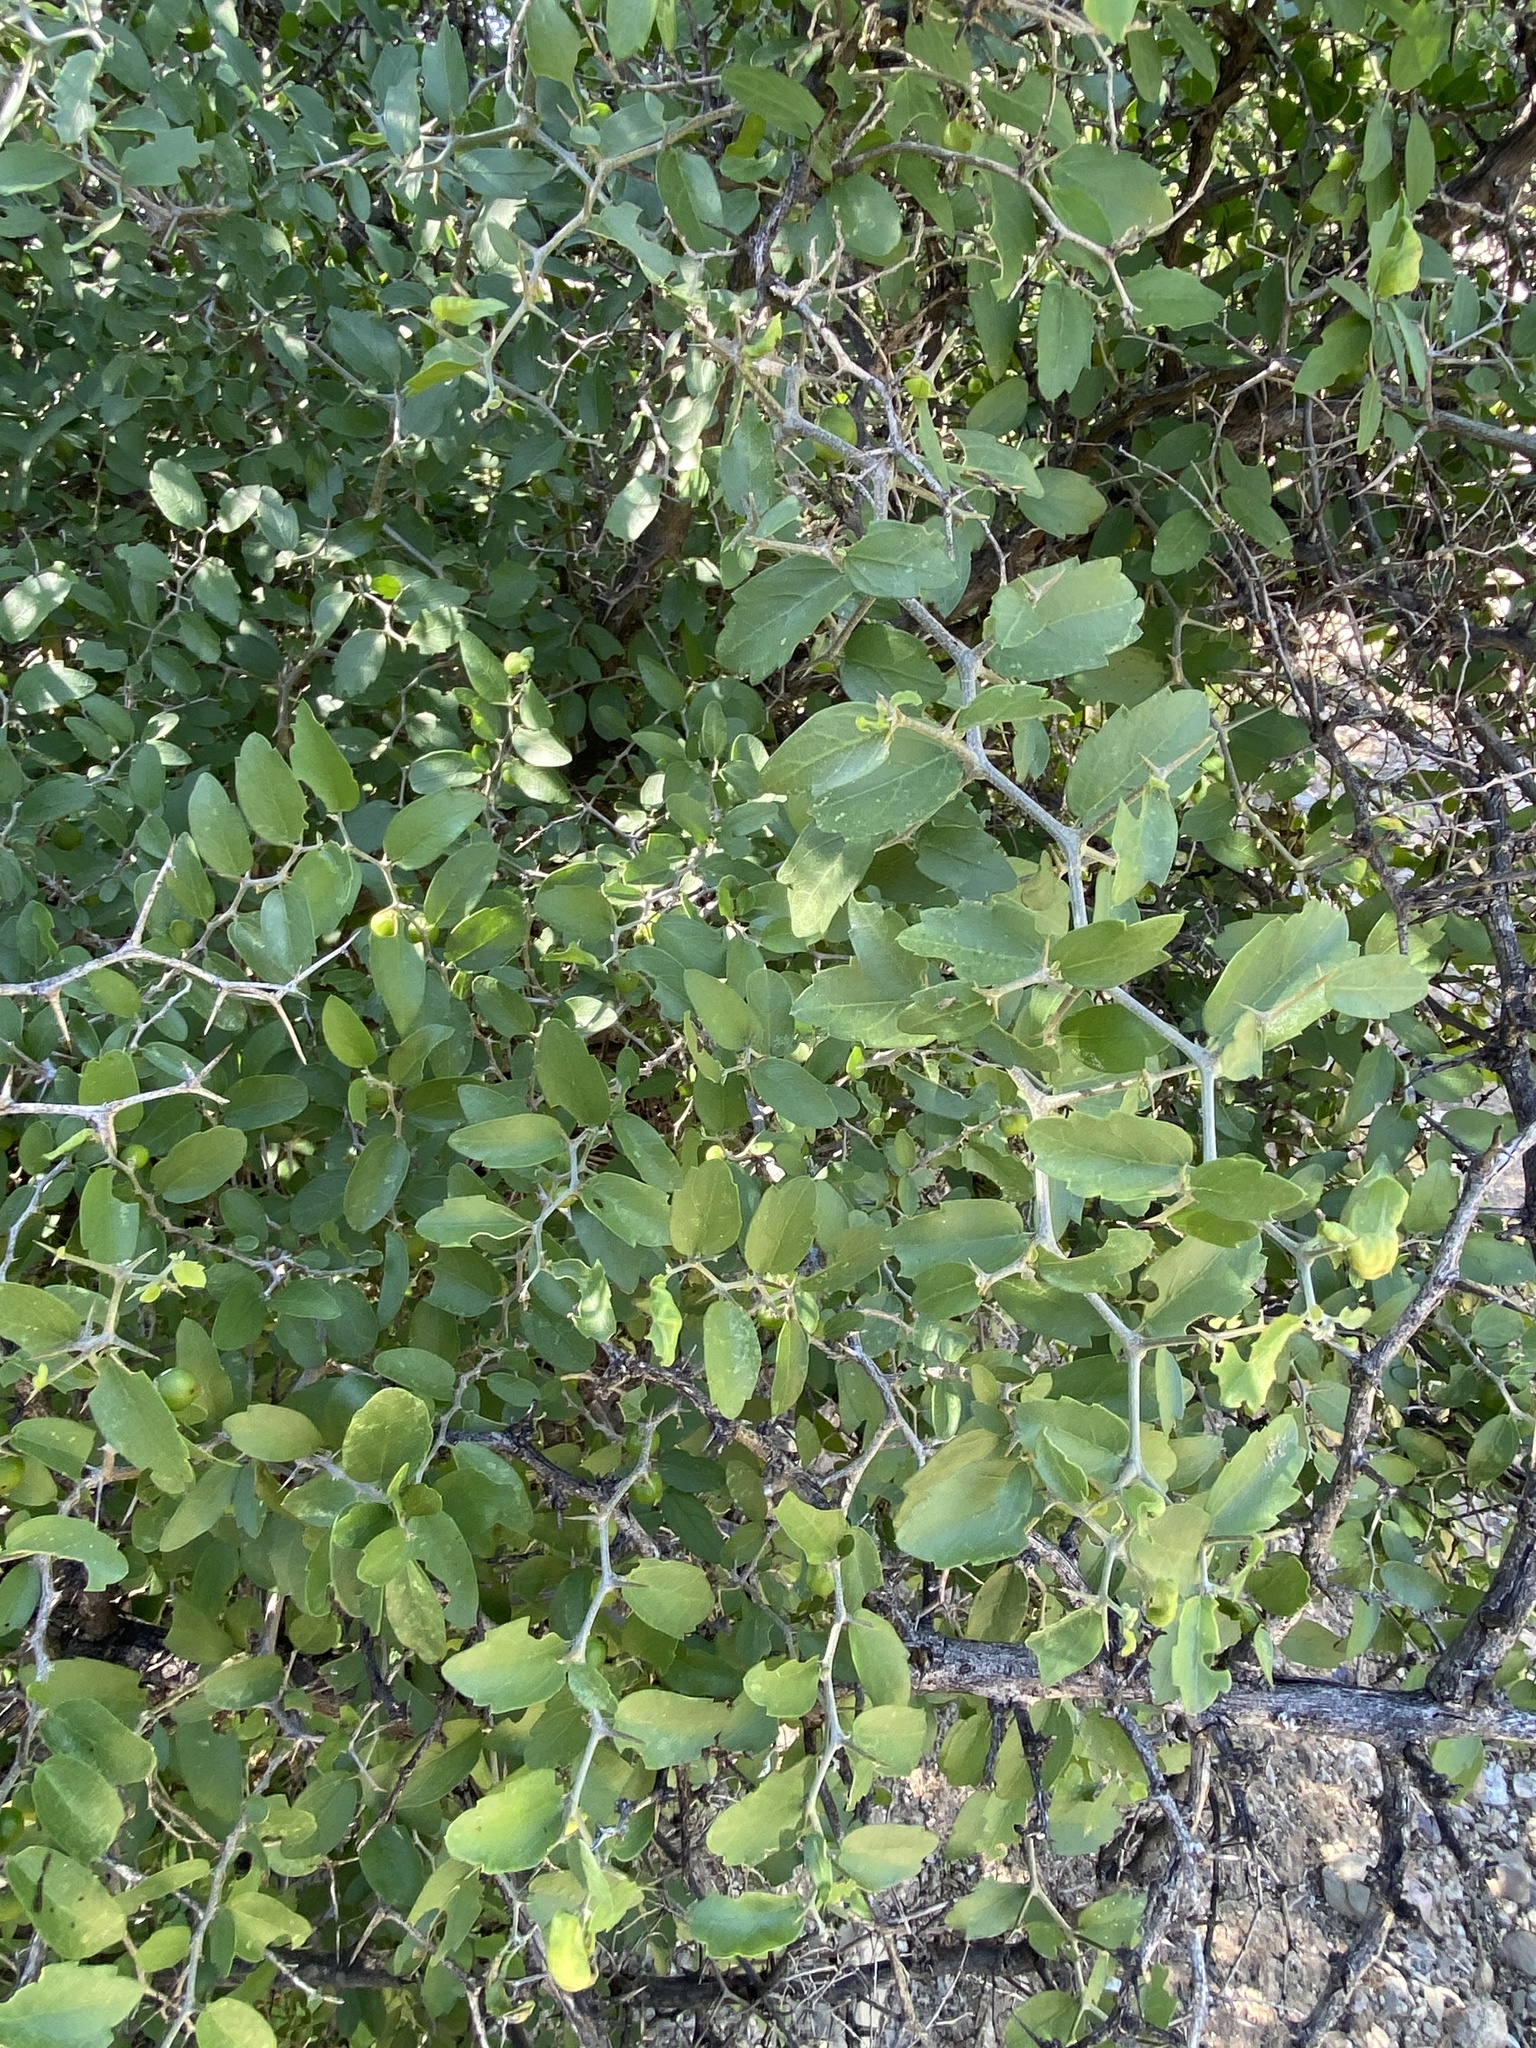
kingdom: Plantae
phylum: Tracheophyta
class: Magnoliopsida
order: Rosales
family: Cannabaceae
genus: Celtis
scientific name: Celtis pallida
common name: Desert hackberry
